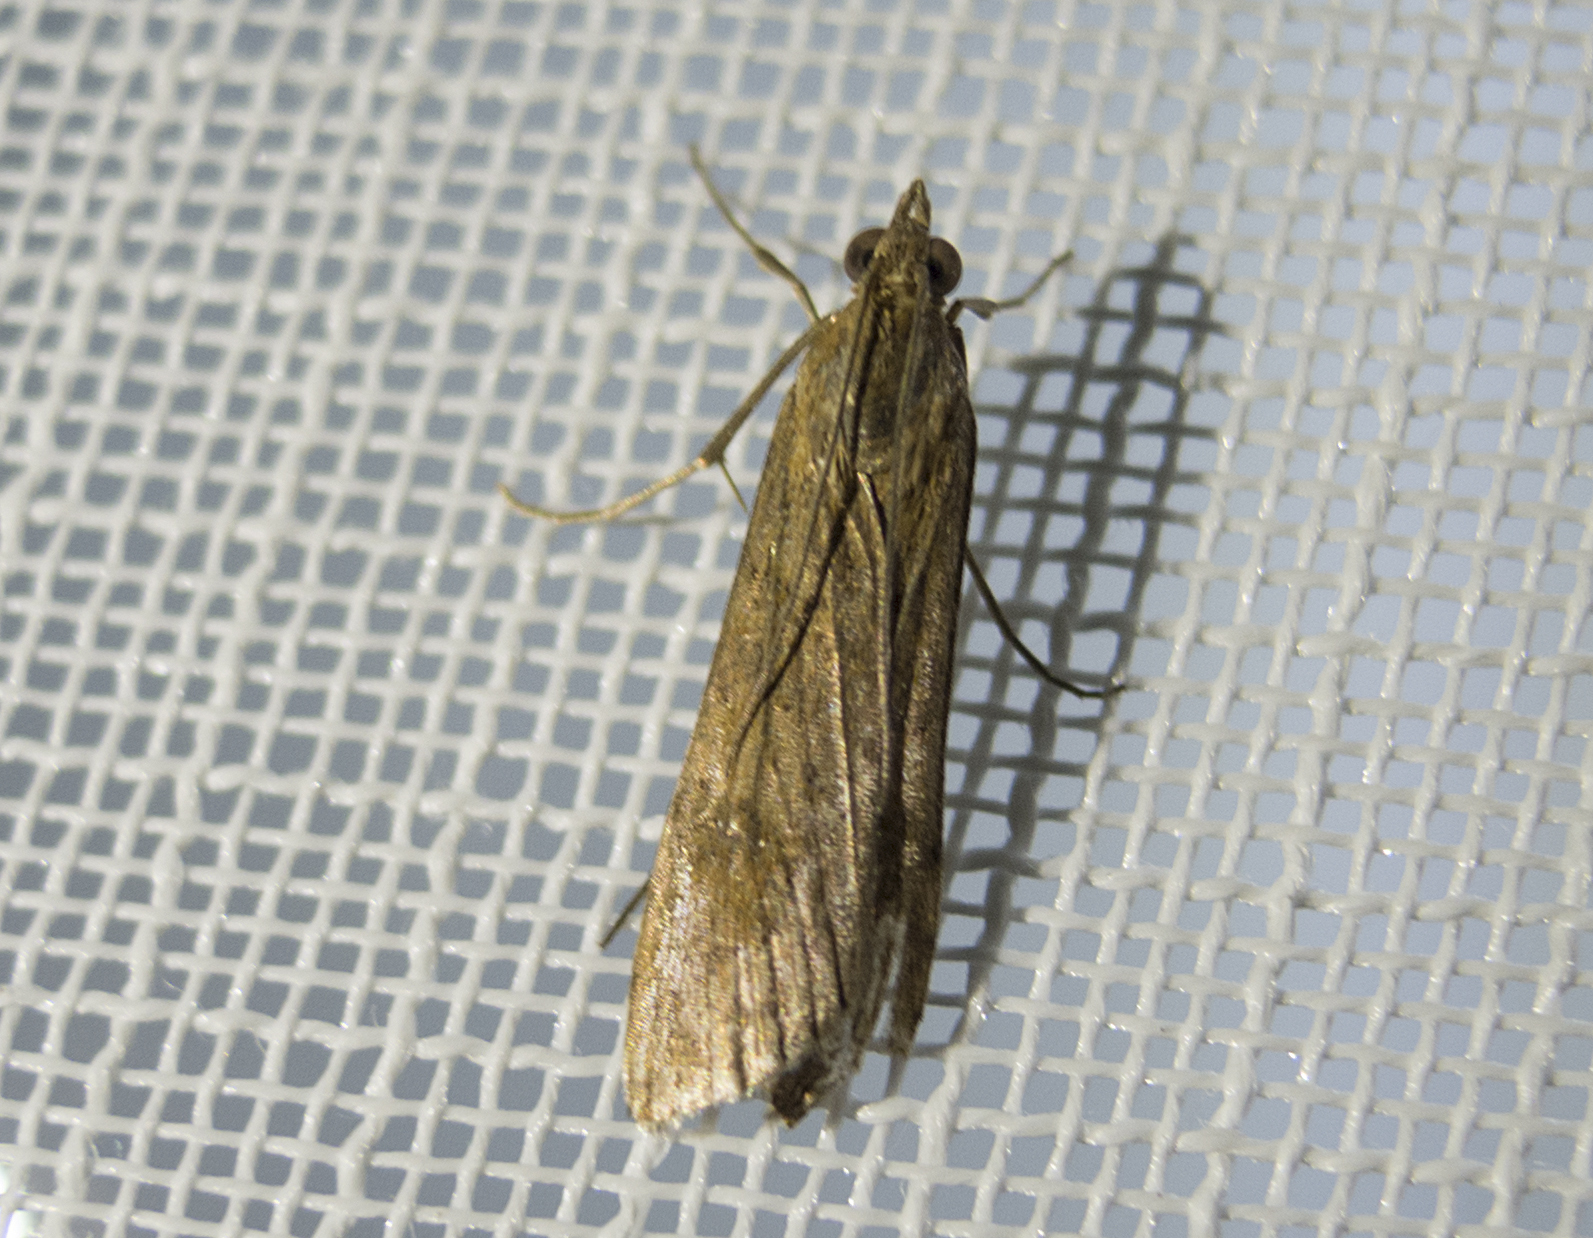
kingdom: Animalia
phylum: Arthropoda
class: Insecta
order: Lepidoptera
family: Crambidae
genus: Nomophila
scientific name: Nomophila noctuella
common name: Rush veneer
